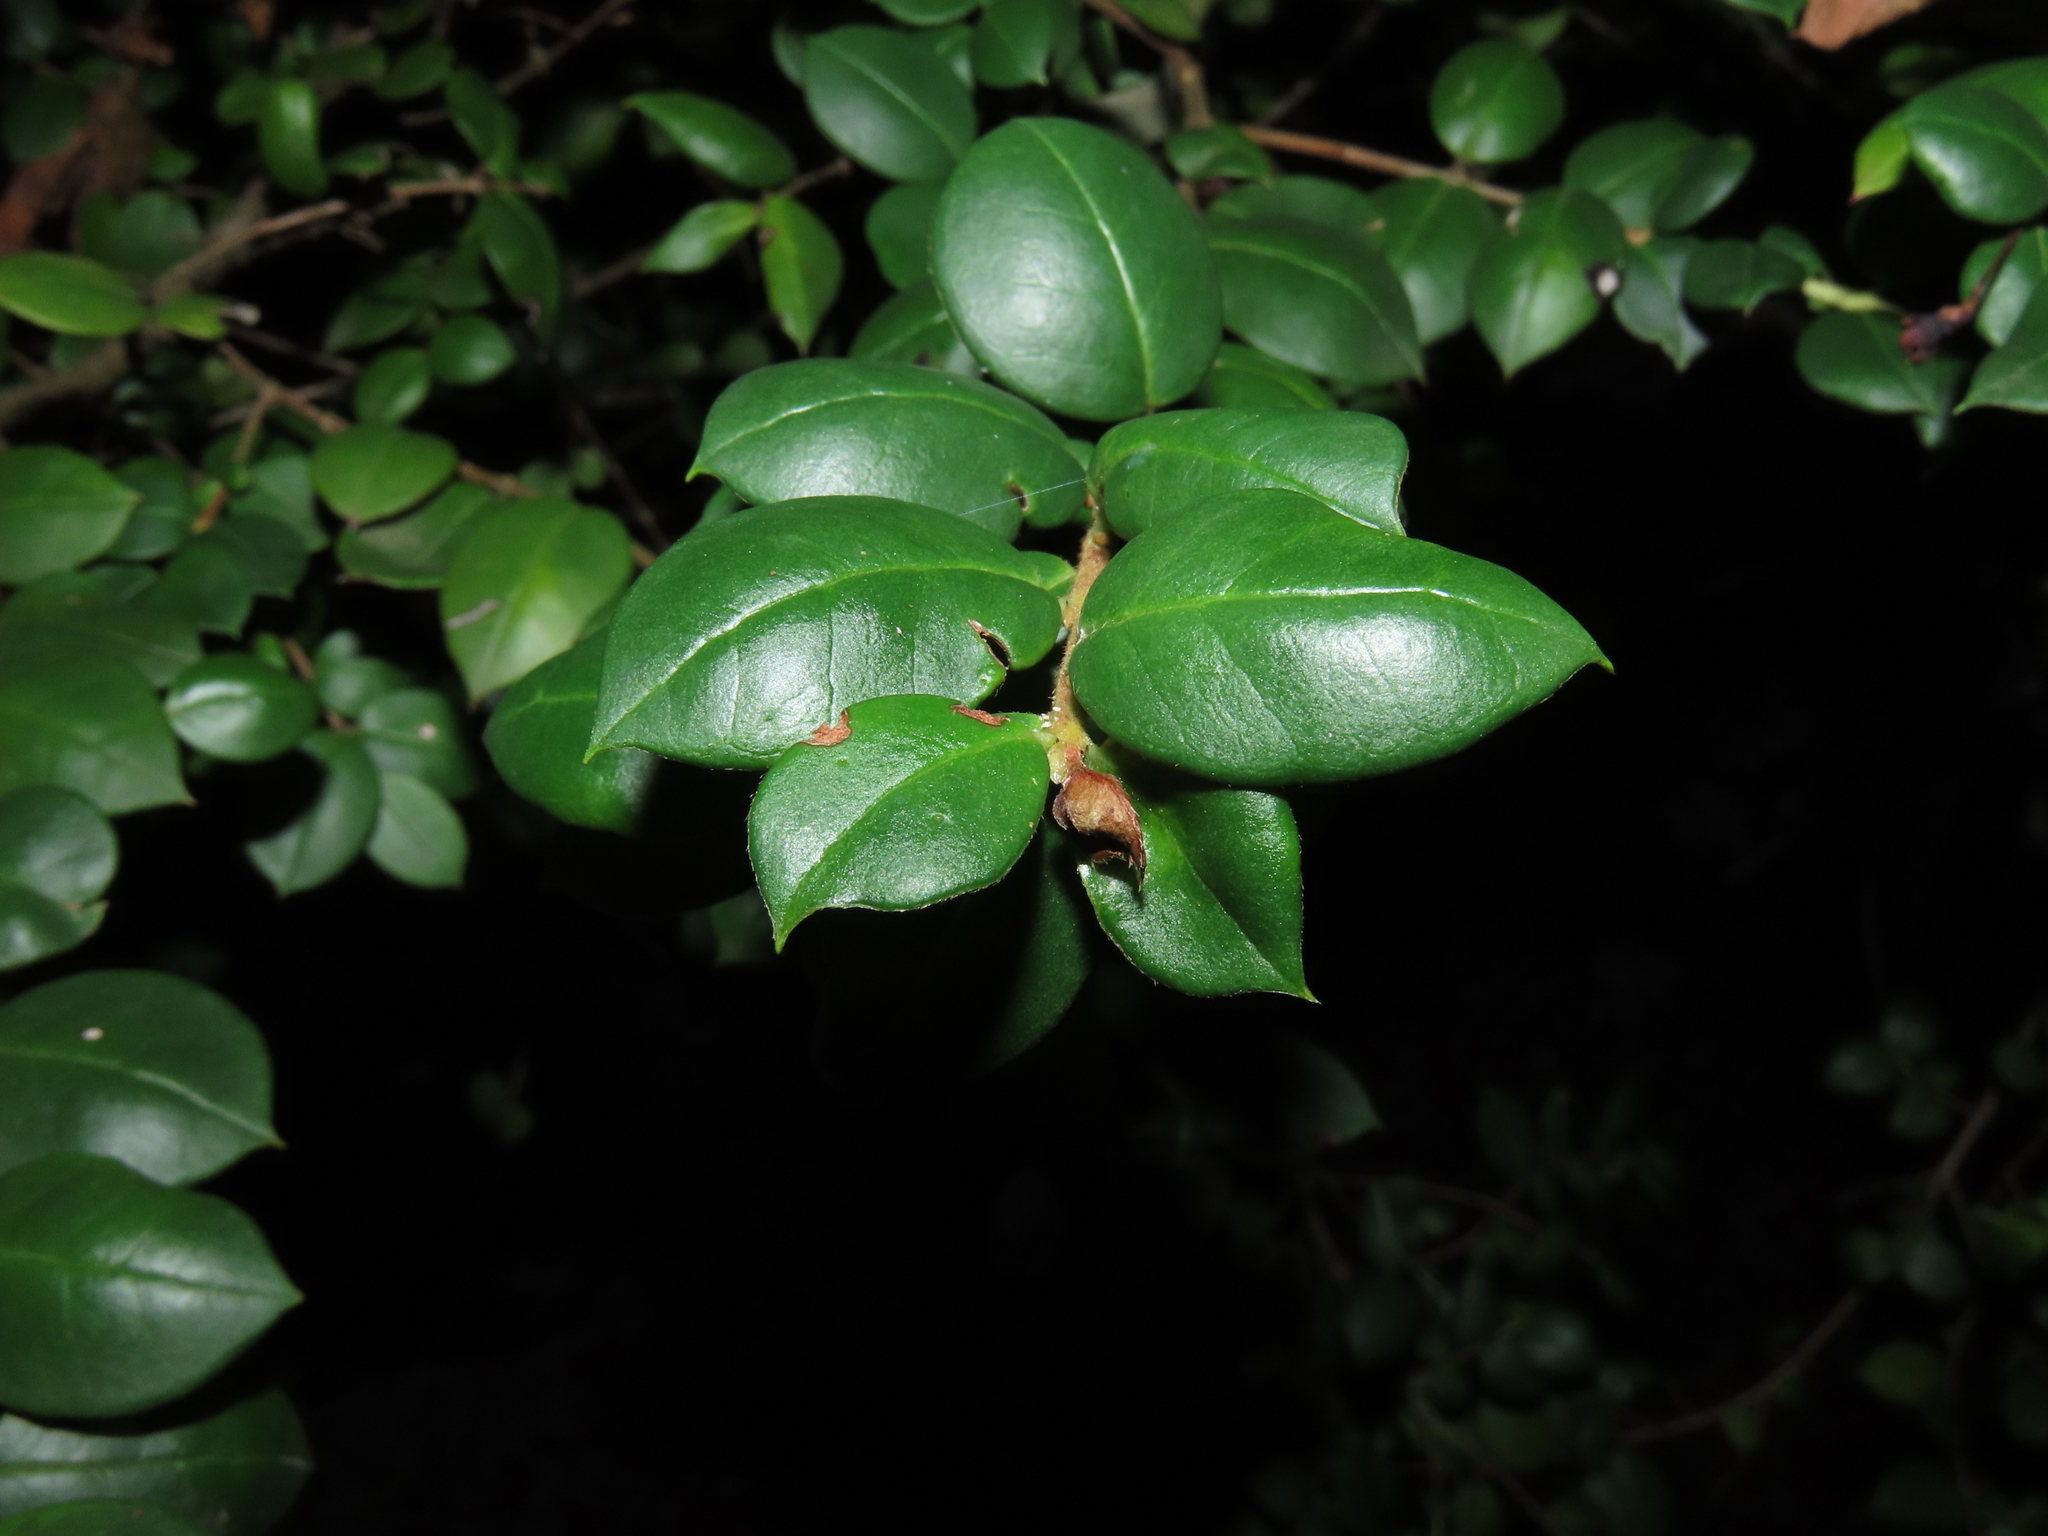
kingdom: Plantae
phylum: Tracheophyta
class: Magnoliopsida
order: Myrtales
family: Myrtaceae
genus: Luma
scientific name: Luma apiculata
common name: Chilean myrtle
